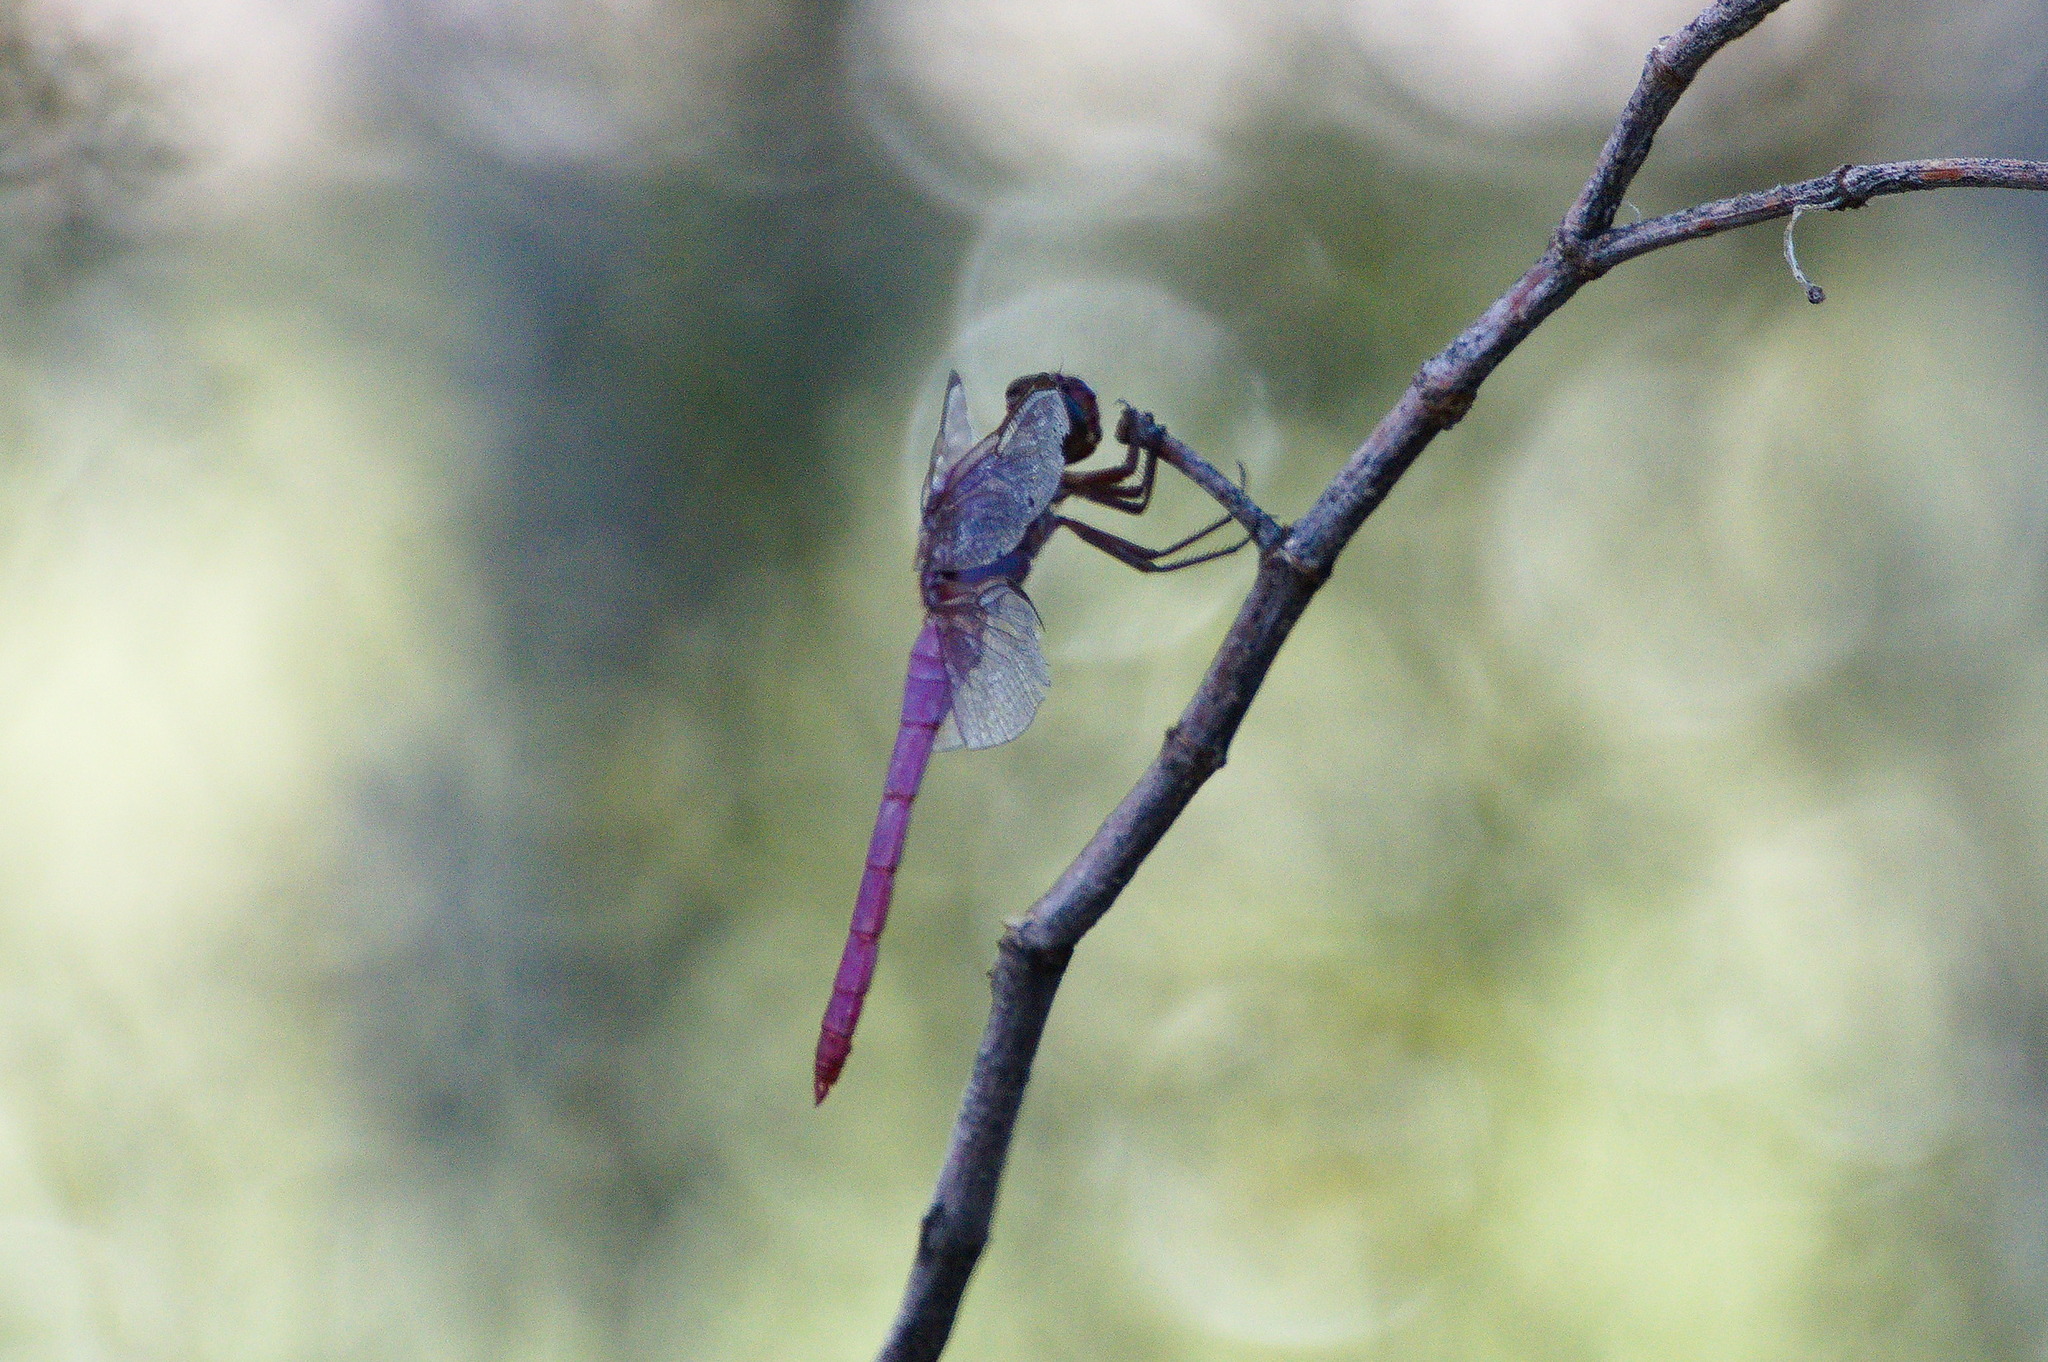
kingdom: Animalia
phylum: Arthropoda
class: Insecta
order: Odonata
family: Libellulidae
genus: Orthemis
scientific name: Orthemis ferruginea
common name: Roseate skimmer
